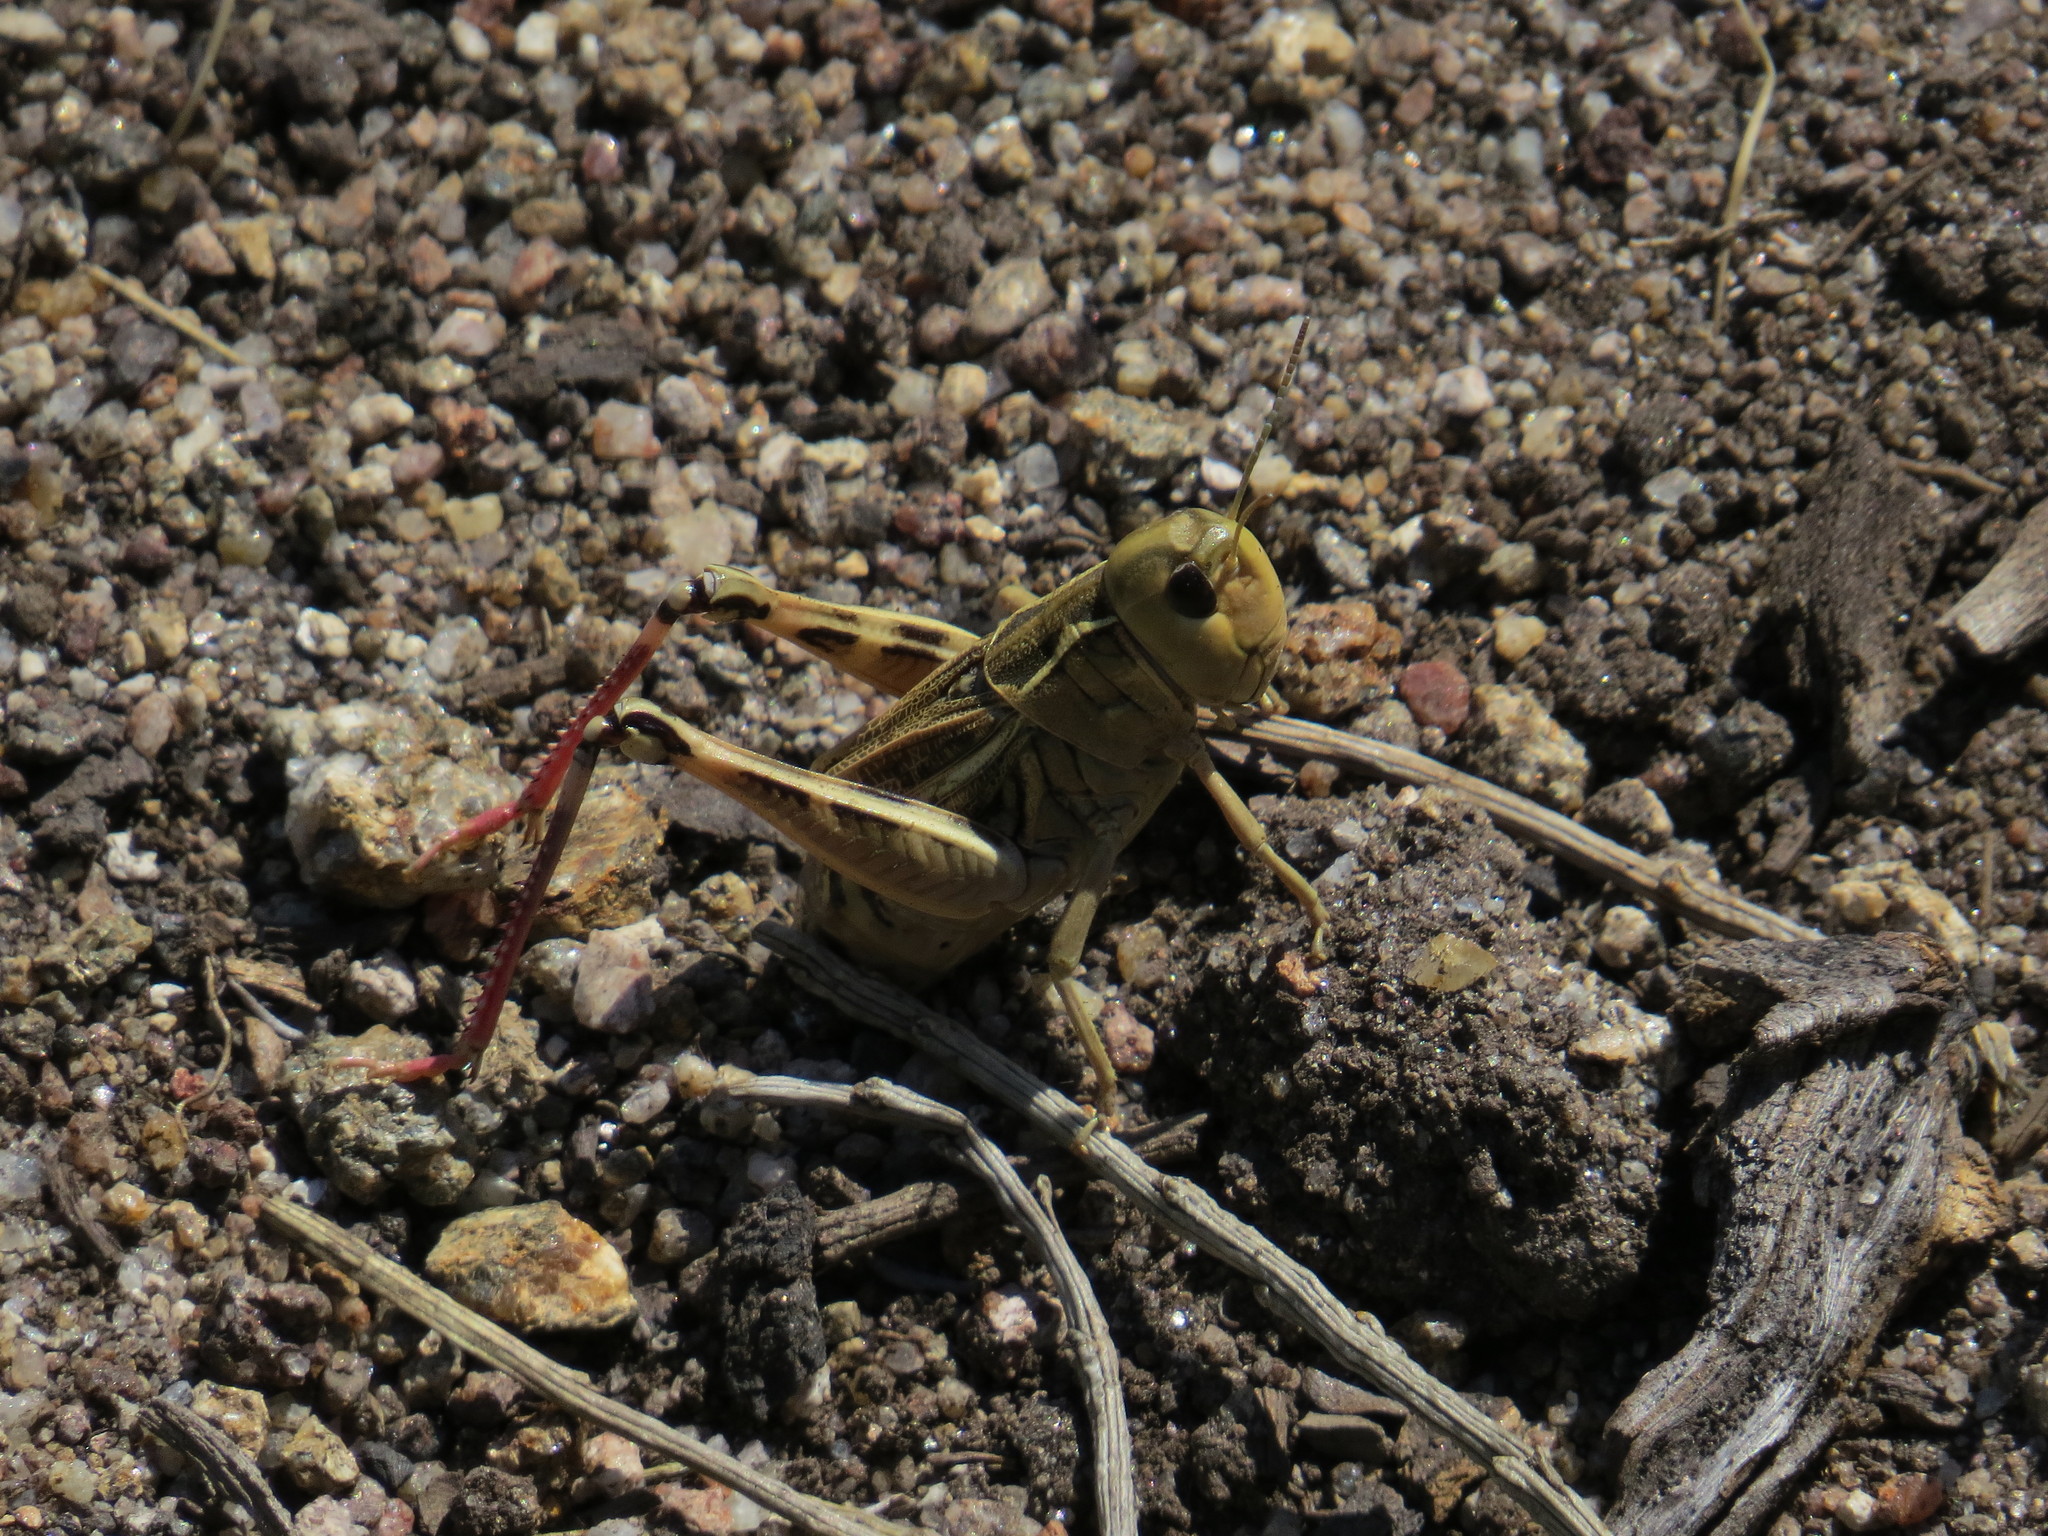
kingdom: Animalia
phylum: Arthropoda
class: Insecta
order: Orthoptera
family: Acrididae
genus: Arcyptera
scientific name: Arcyptera tornosi
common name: Iberian banded grasshopper
